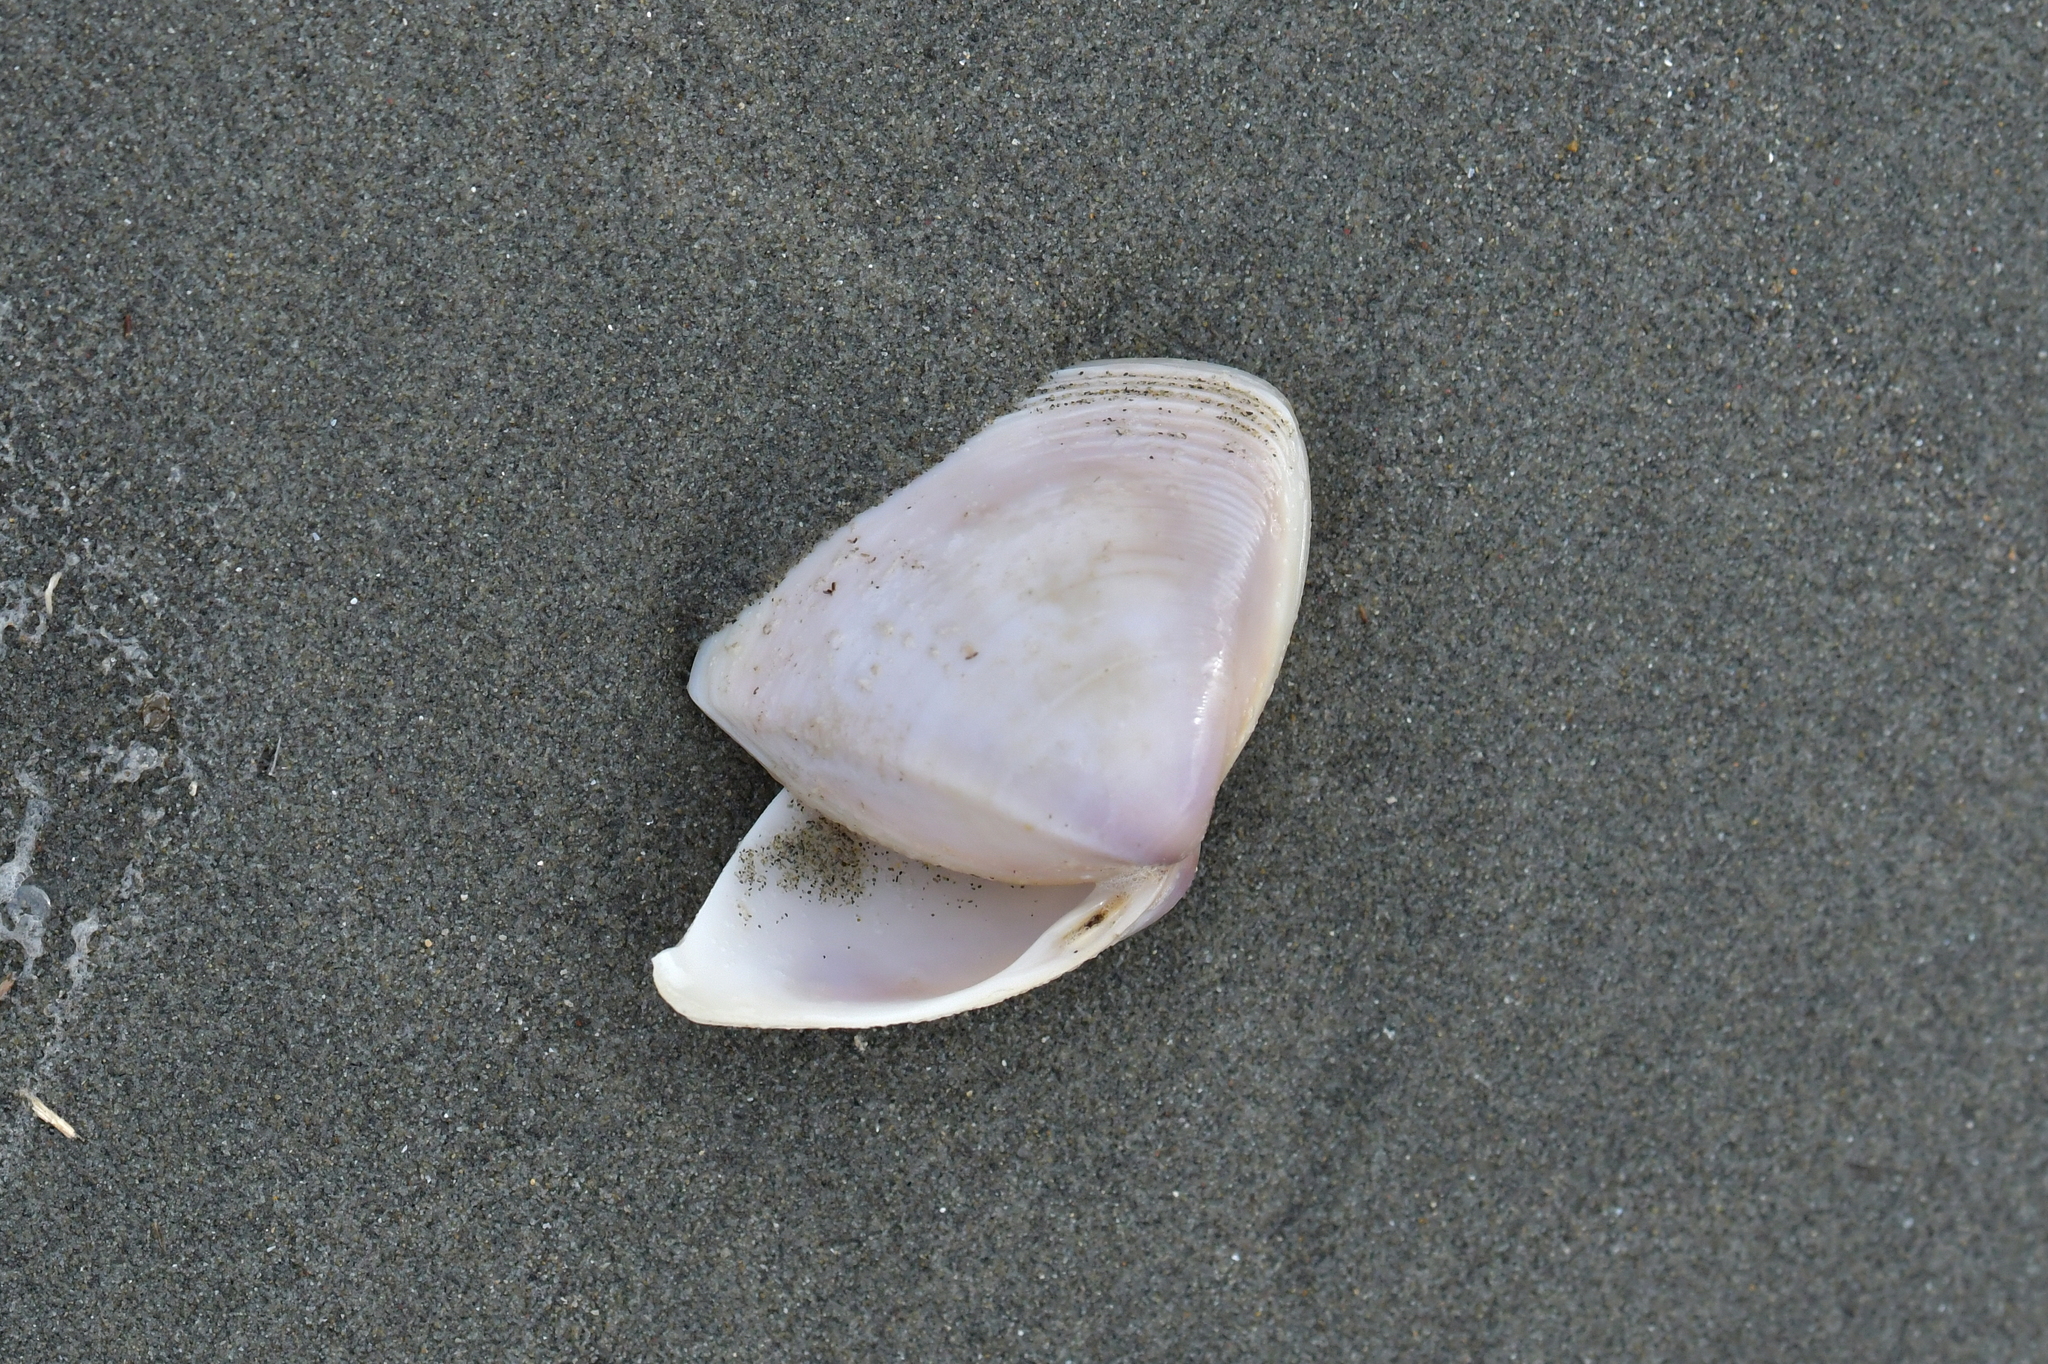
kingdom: Animalia
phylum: Mollusca
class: Bivalvia
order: Venerida
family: Mactridae
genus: Crassula
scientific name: Crassula aequilatera
